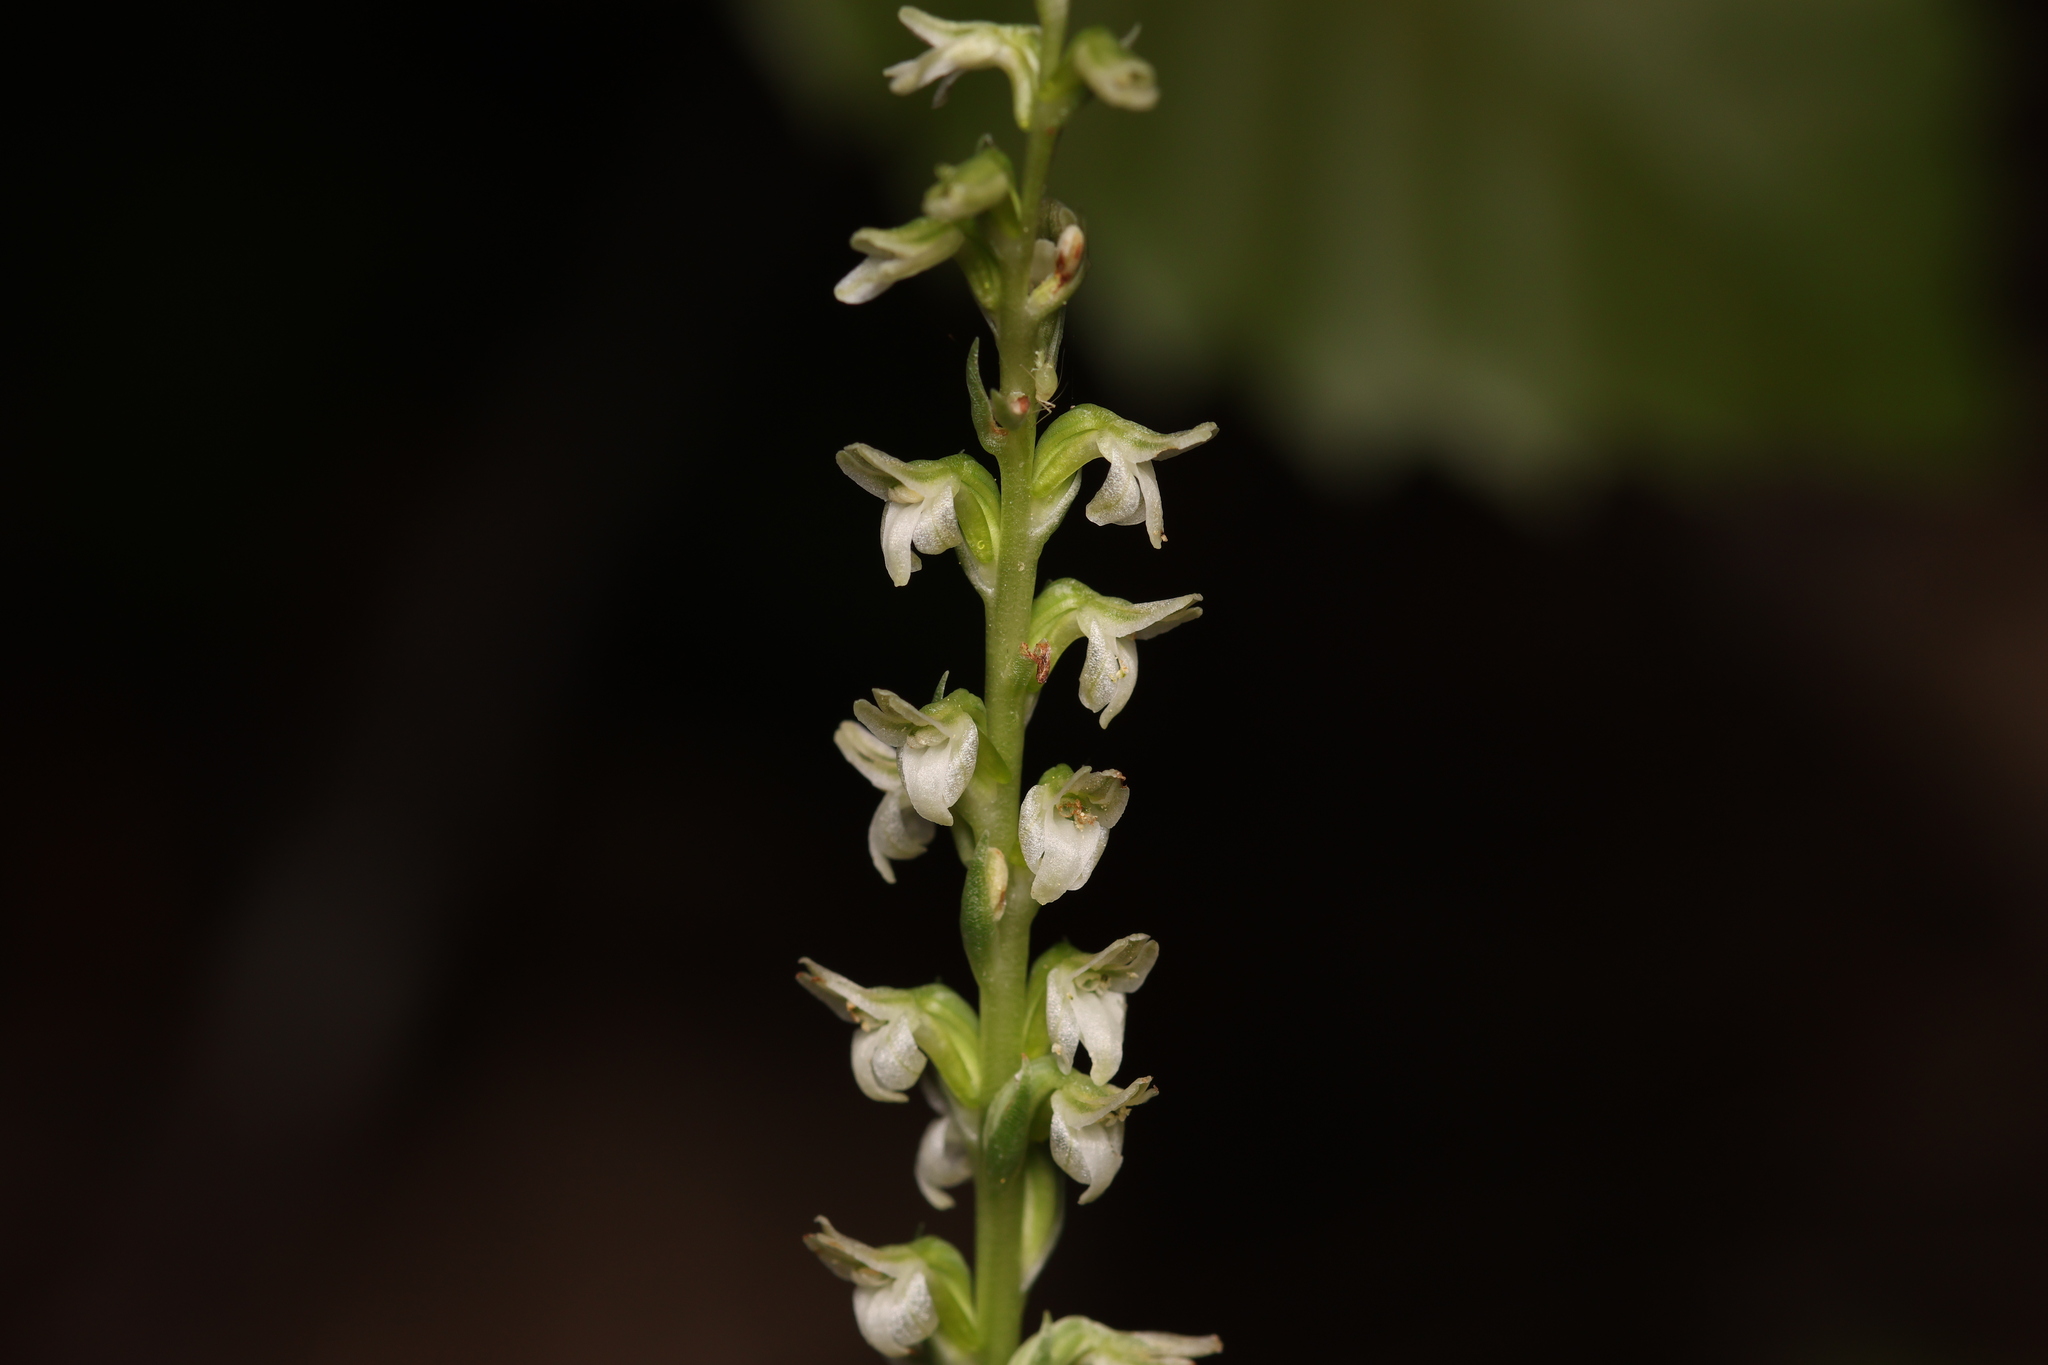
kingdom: Plantae
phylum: Tracheophyta
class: Liliopsida
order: Asparagales
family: Orchidaceae
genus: Platanthera
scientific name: Platanthera ephemerantha
